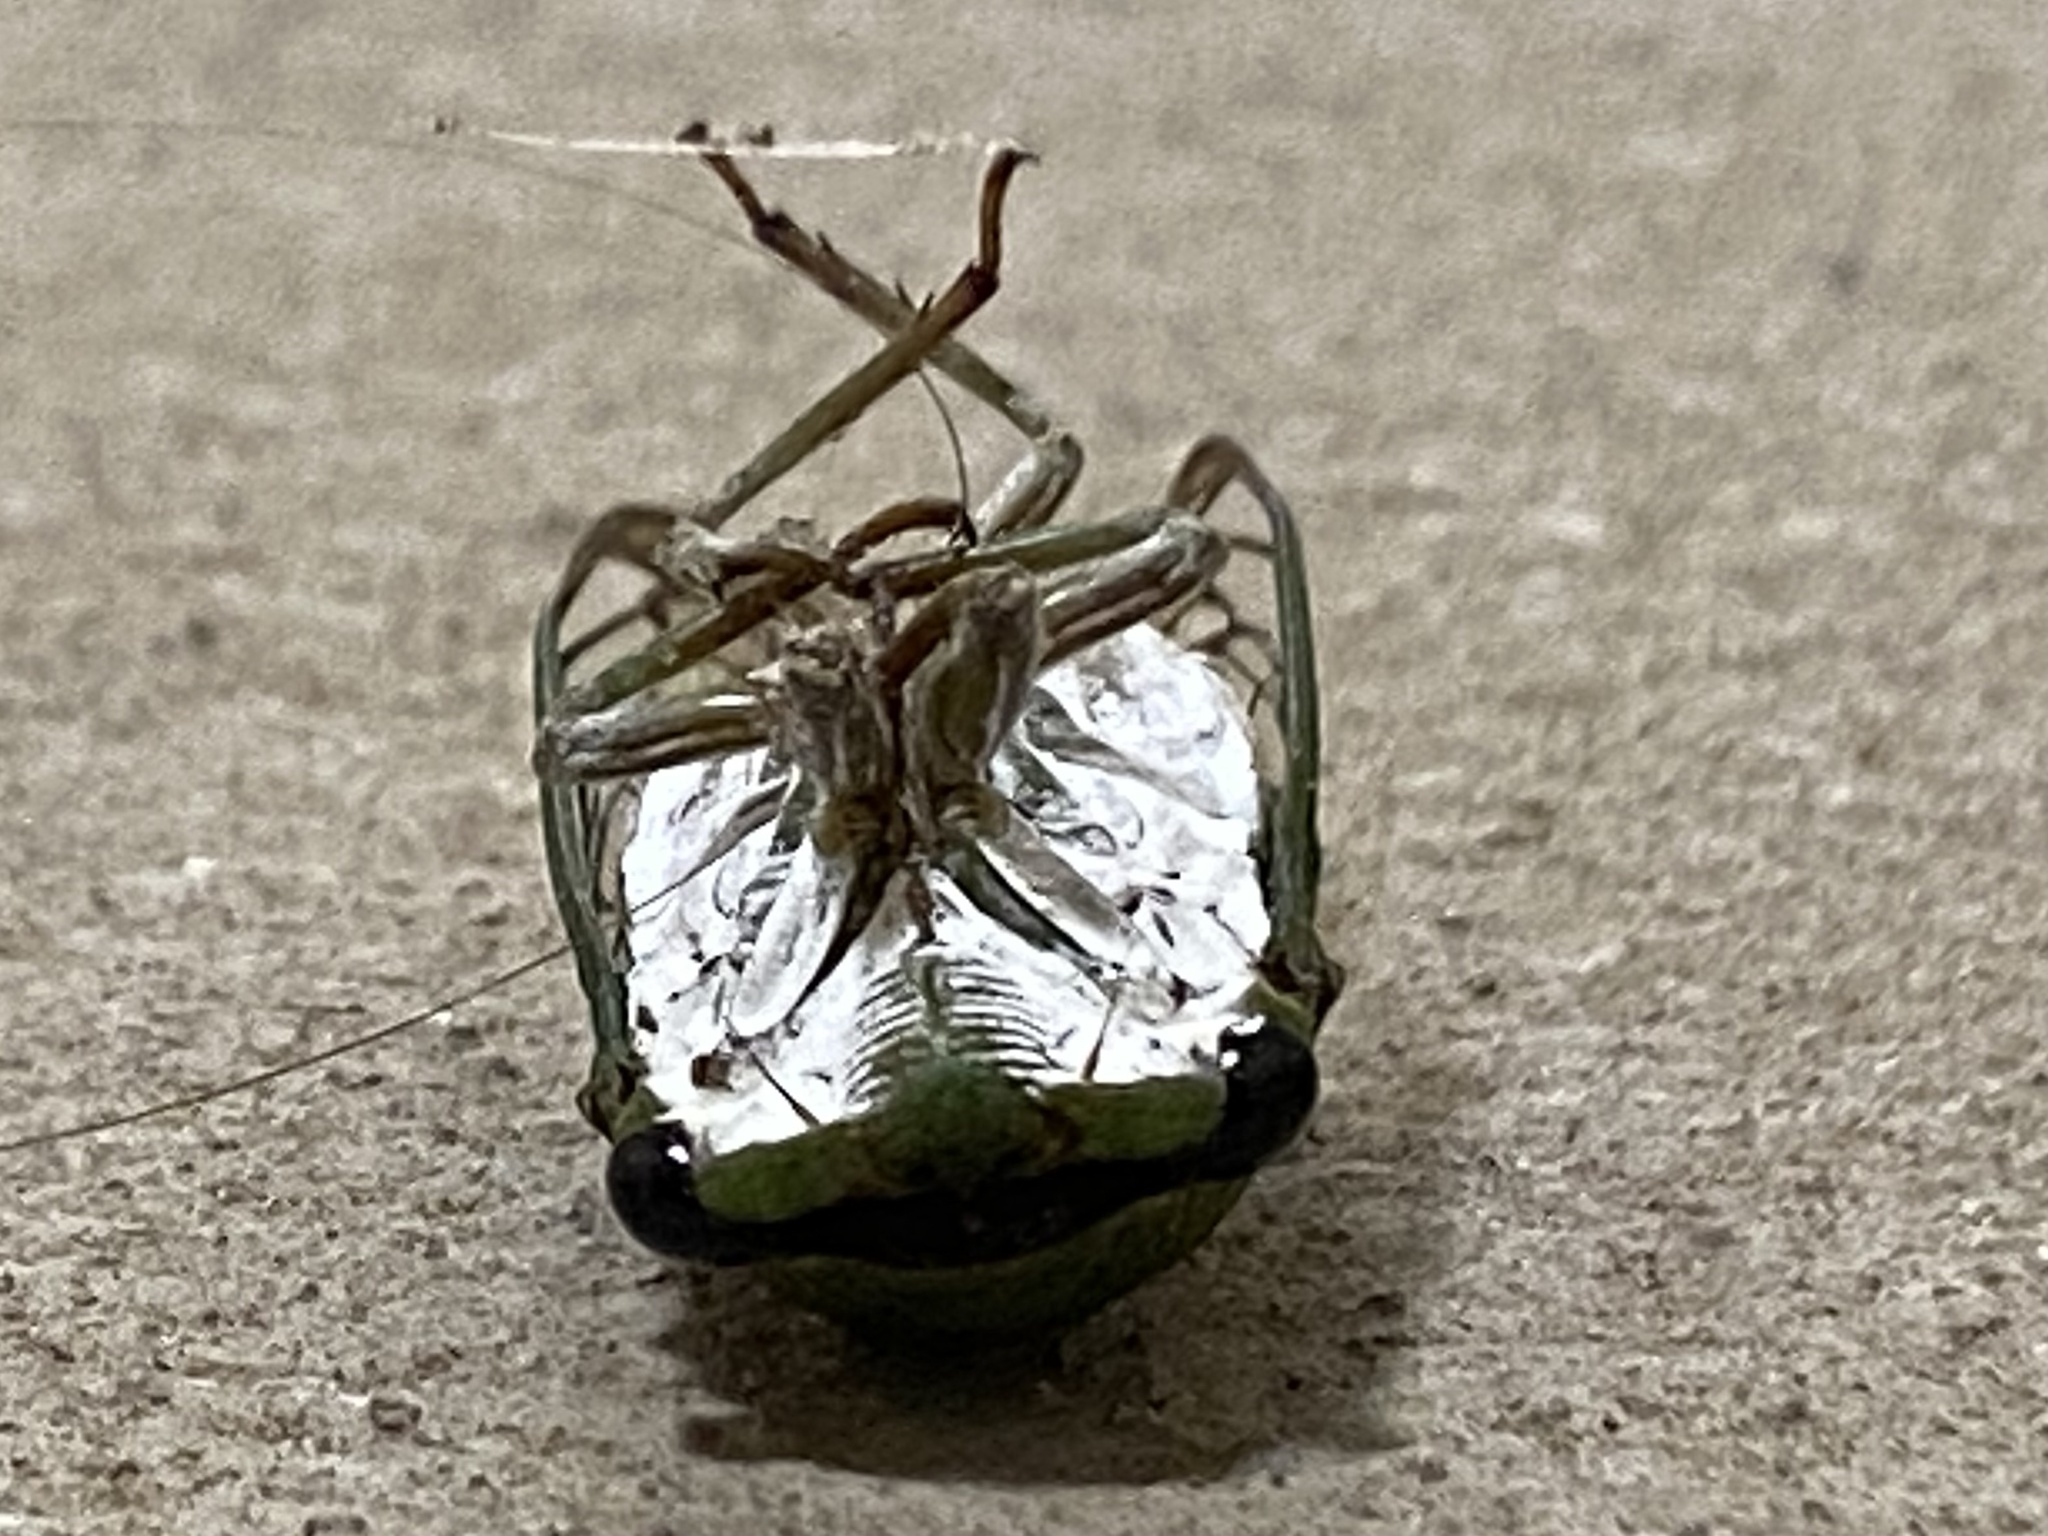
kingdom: Animalia
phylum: Arthropoda
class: Insecta
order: Hemiptera
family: Cicadidae
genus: Neotibicen
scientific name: Neotibicen superbus
